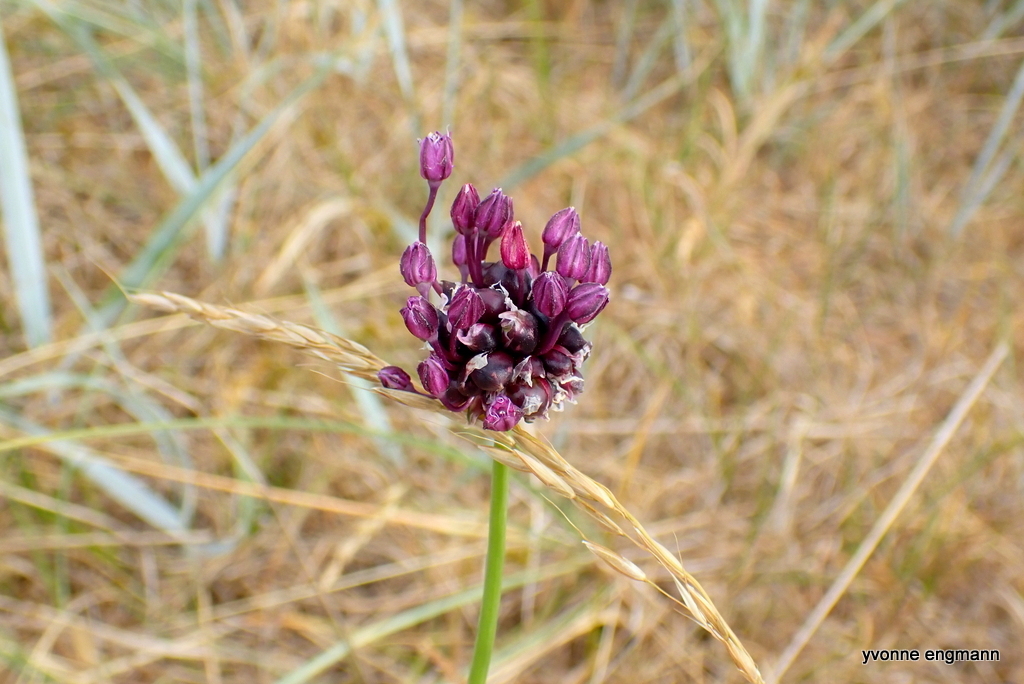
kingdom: Plantae
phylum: Tracheophyta
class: Liliopsida
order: Asparagales
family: Amaryllidaceae
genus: Allium
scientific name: Allium scorodoprasum
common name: Sand leek
